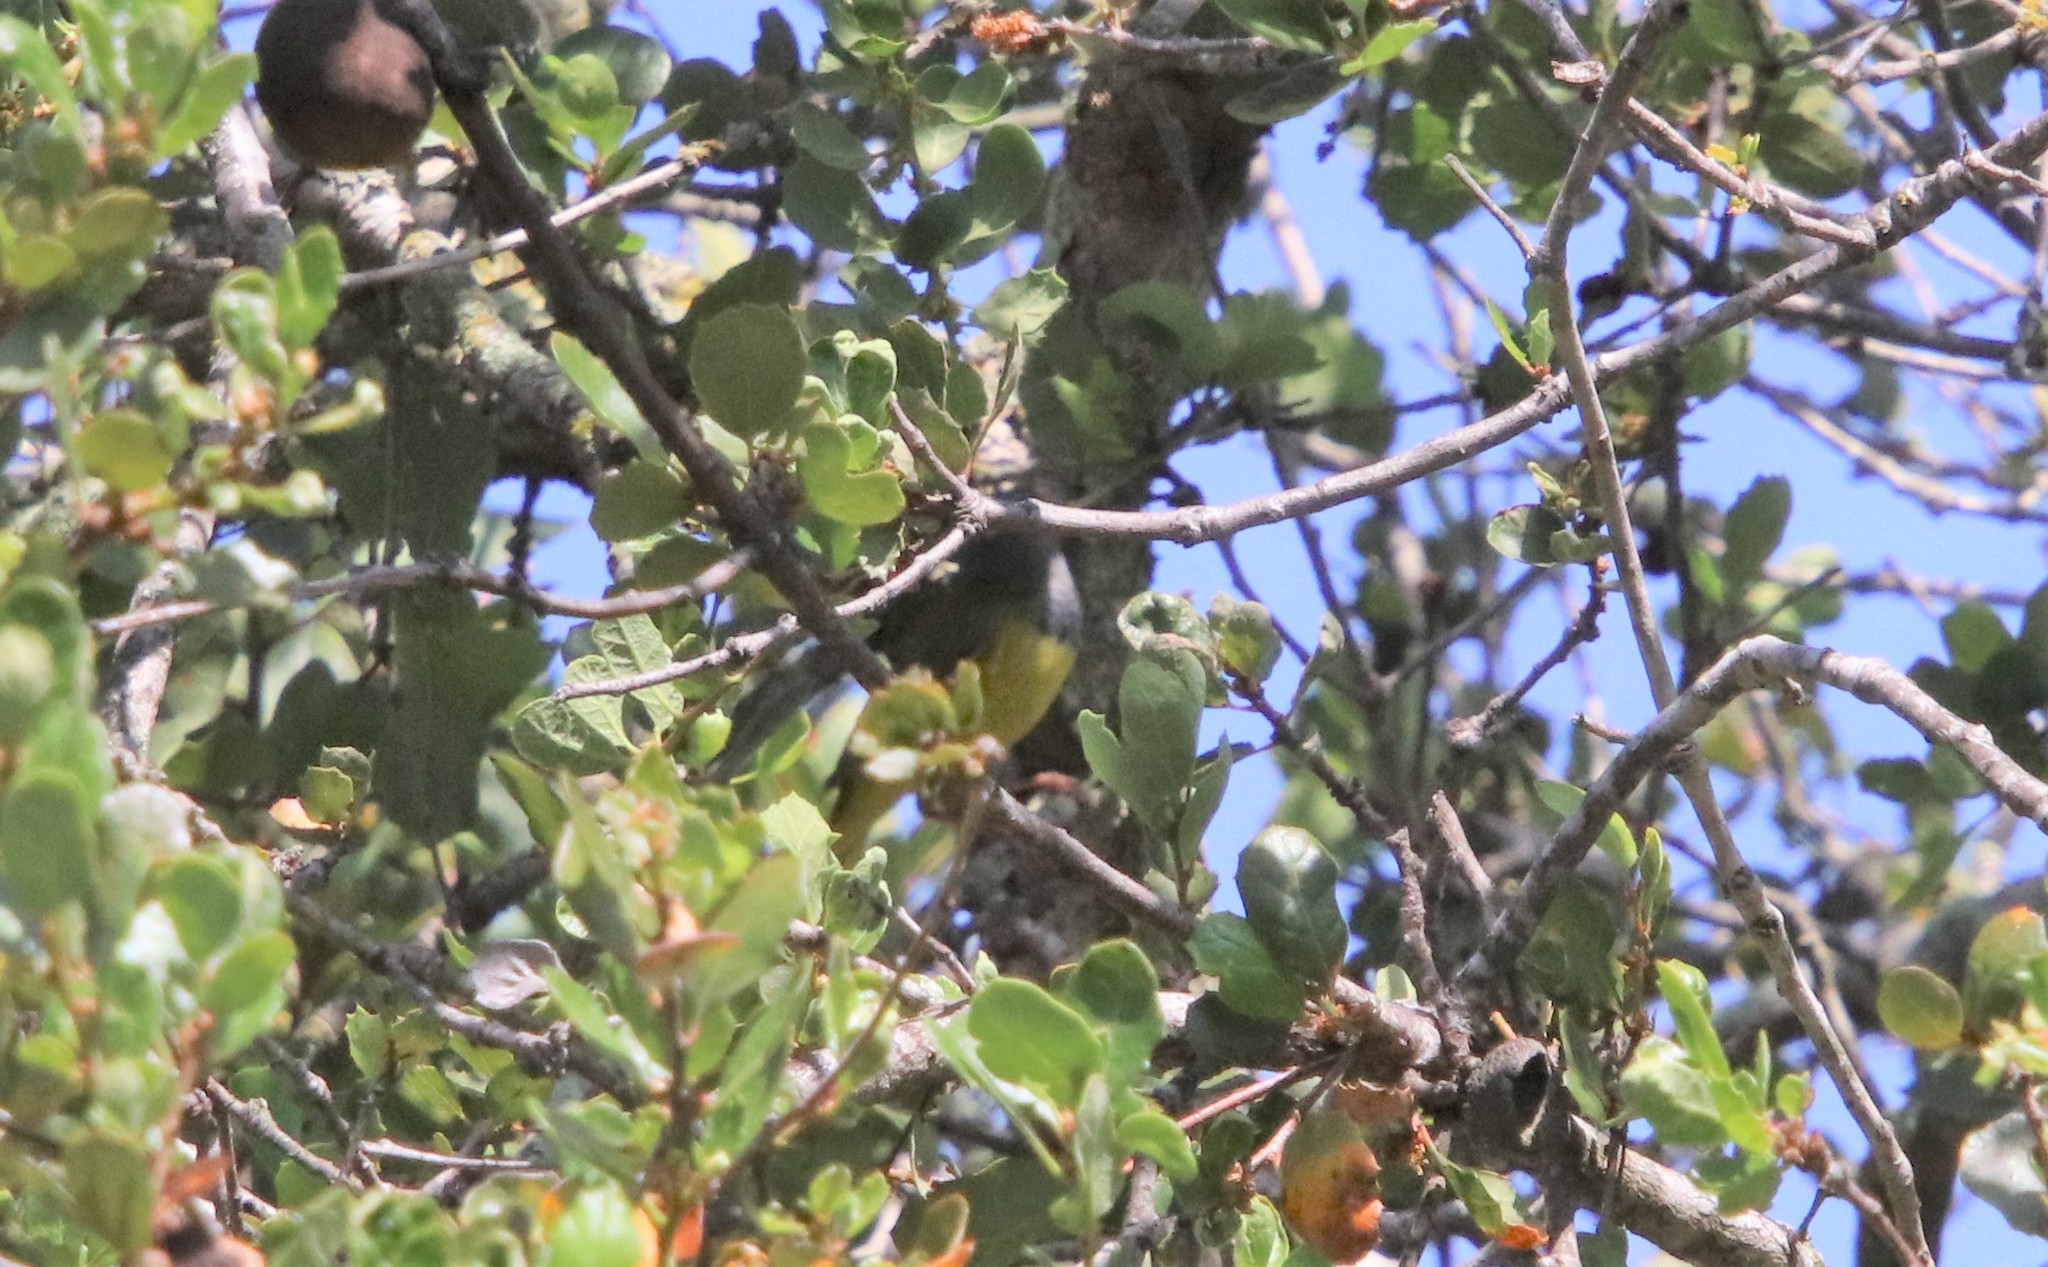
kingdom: Animalia
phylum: Chordata
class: Aves
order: Passeriformes
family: Parulidae
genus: Geothlypis
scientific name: Geothlypis tolmiei
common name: Macgillivray's warbler
